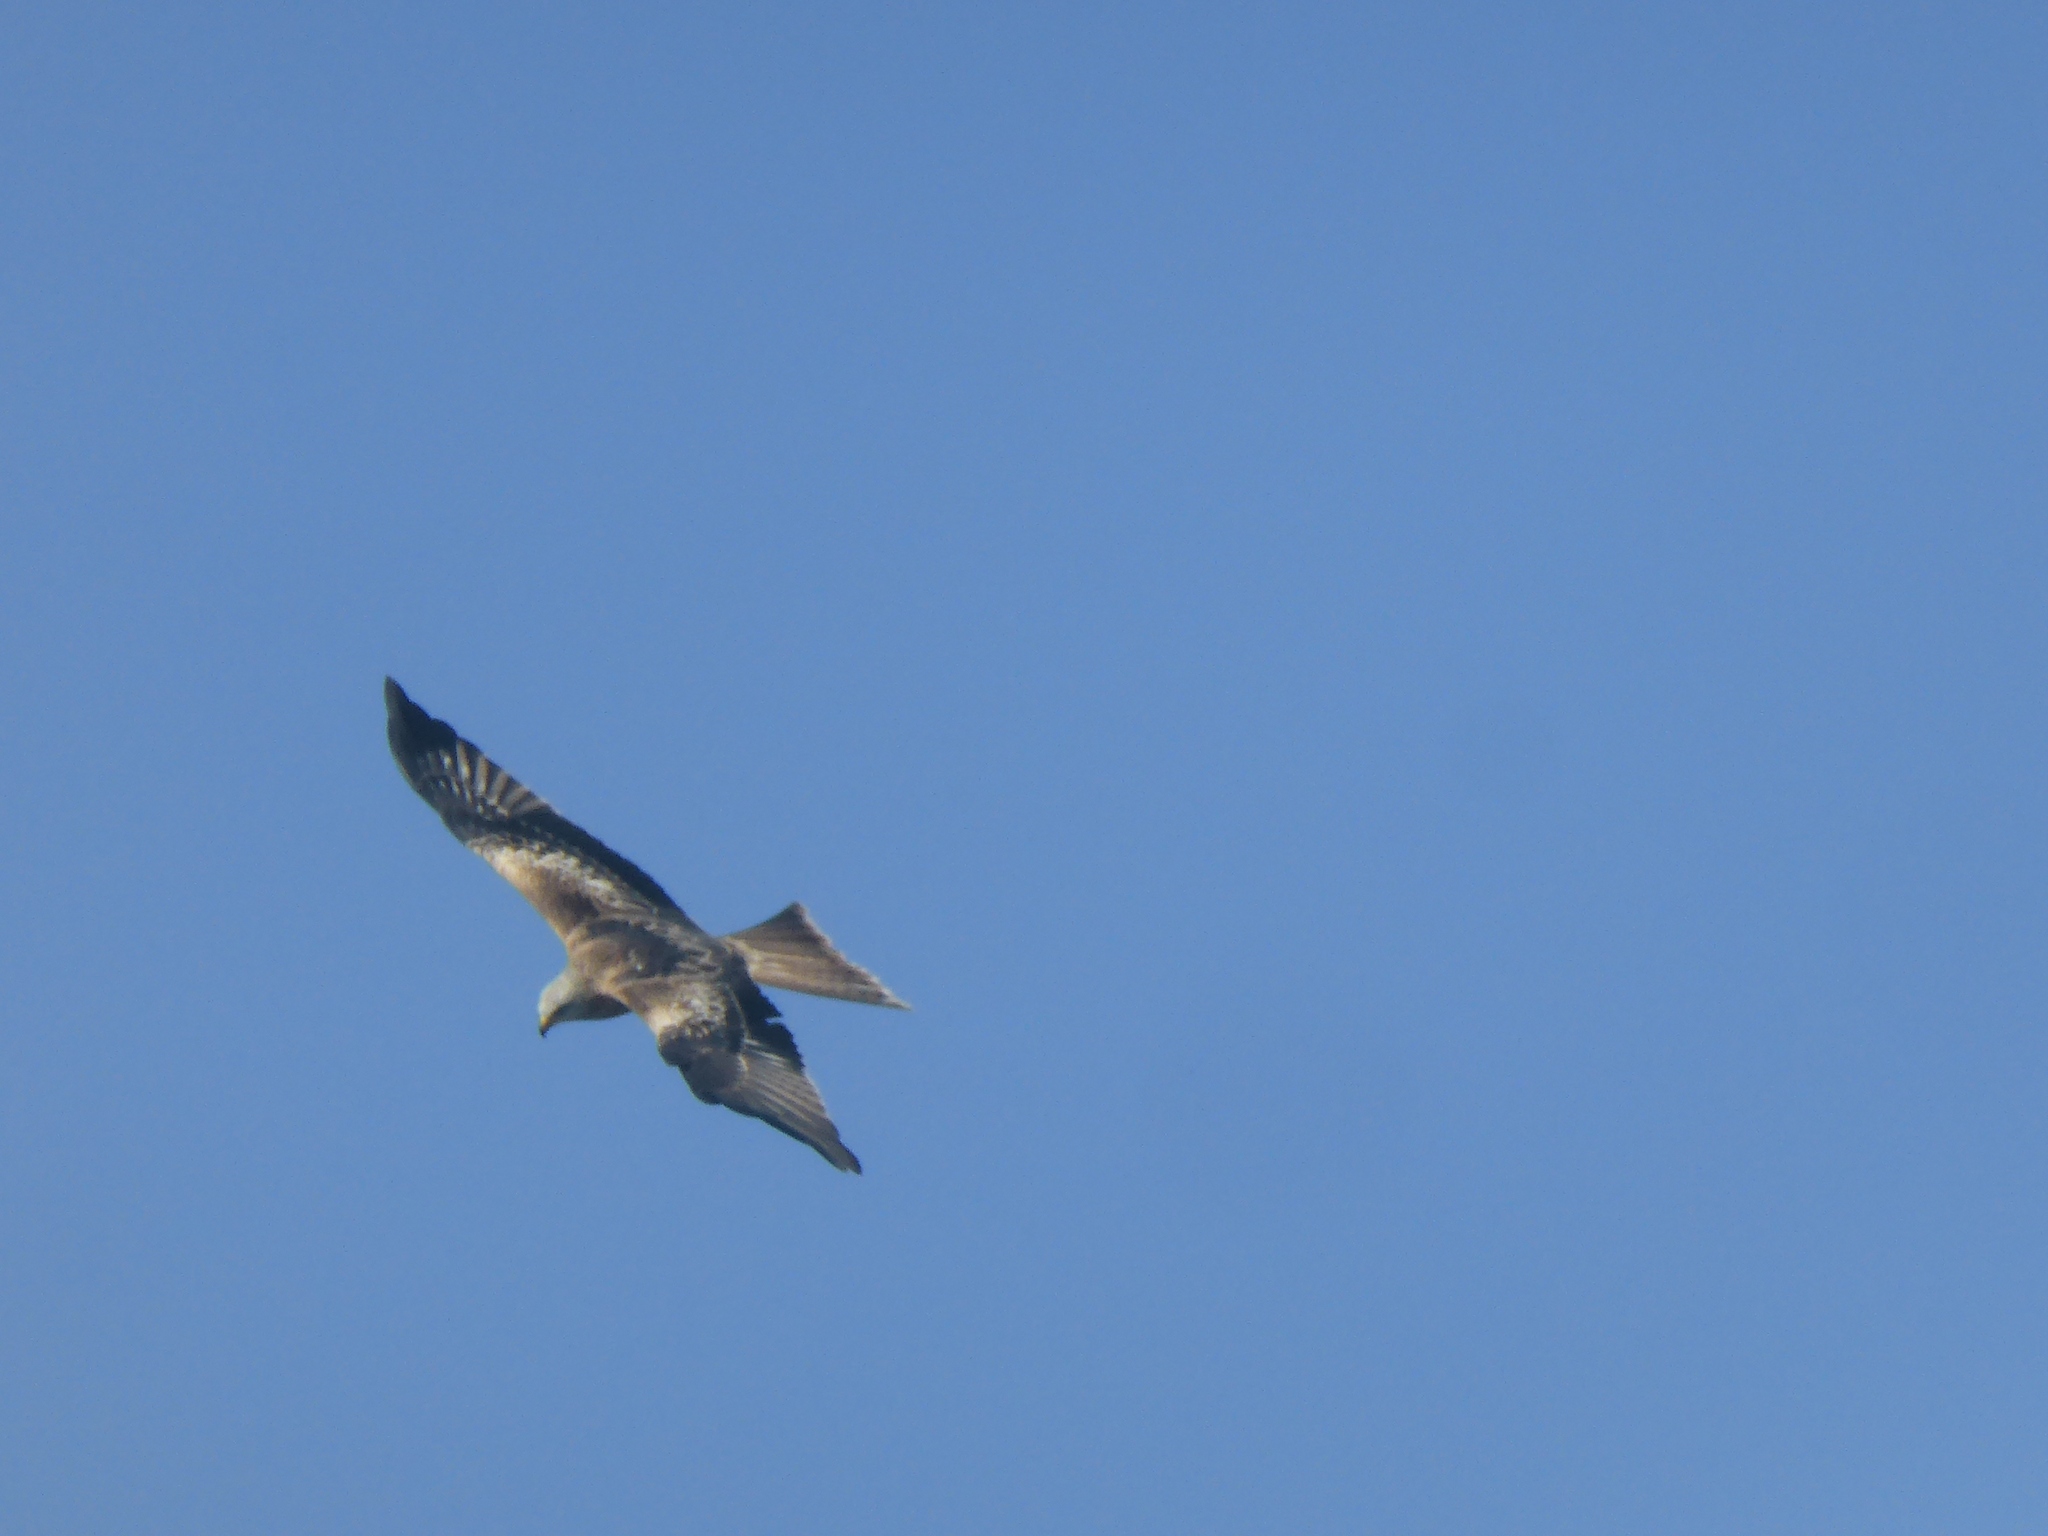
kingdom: Animalia
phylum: Chordata
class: Aves
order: Accipitriformes
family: Accipitridae
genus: Milvus
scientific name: Milvus milvus
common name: Red kite
